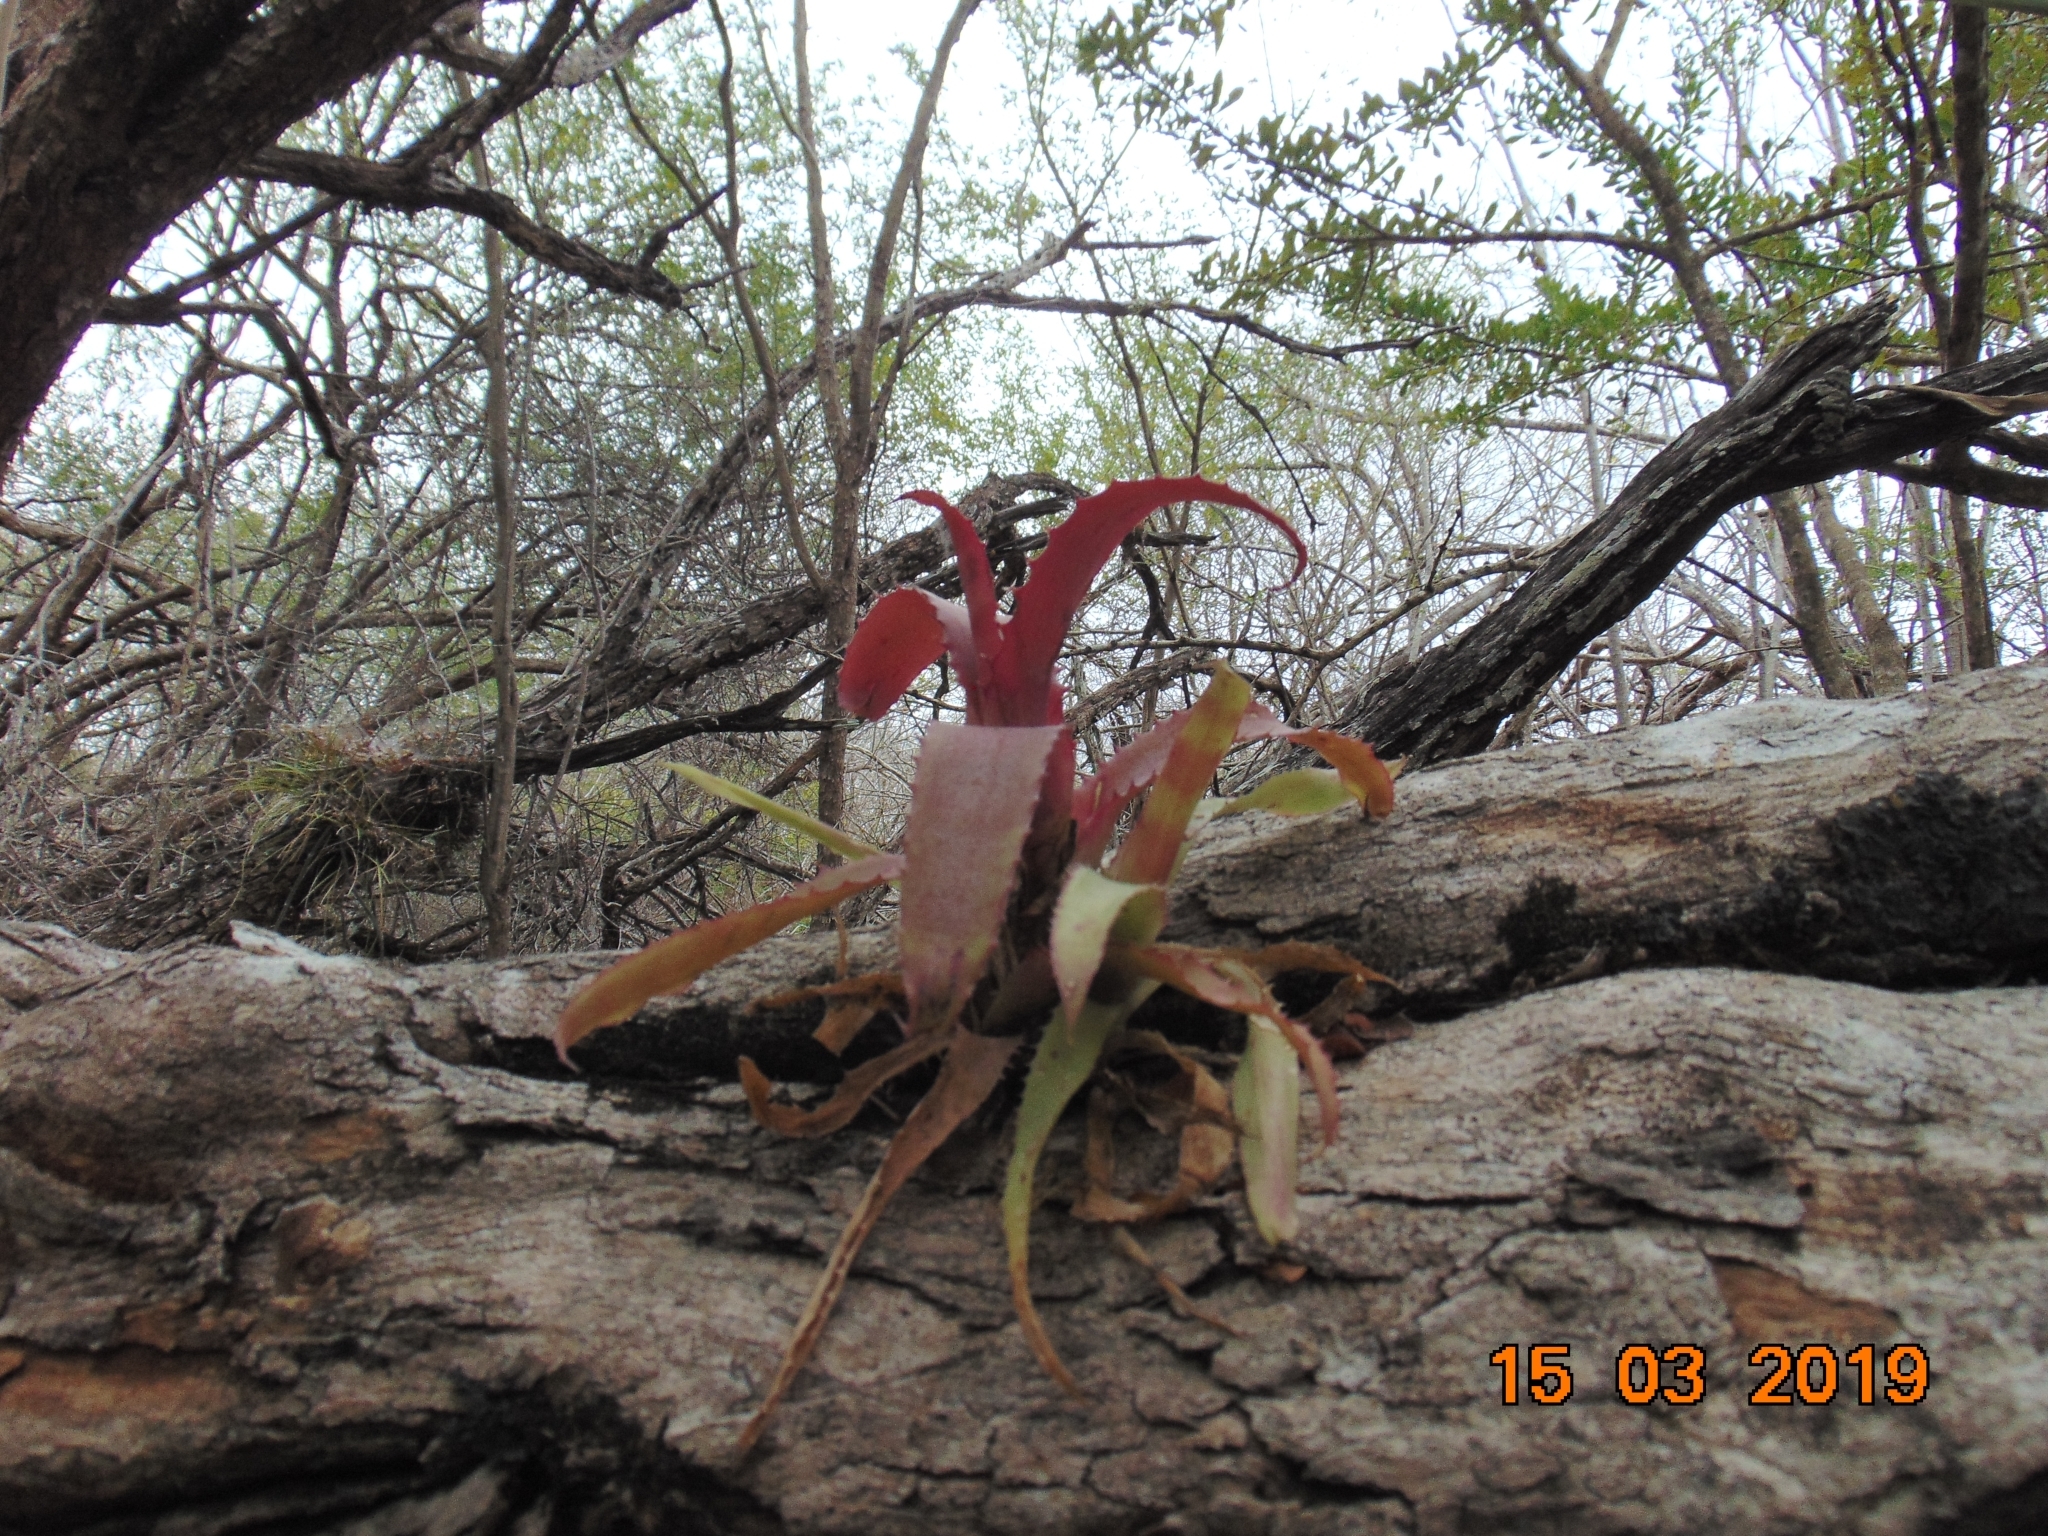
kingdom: Plantae
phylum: Tracheophyta
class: Liliopsida
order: Poales
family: Bromeliaceae
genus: Aechmea
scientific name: Aechmea bracteata
